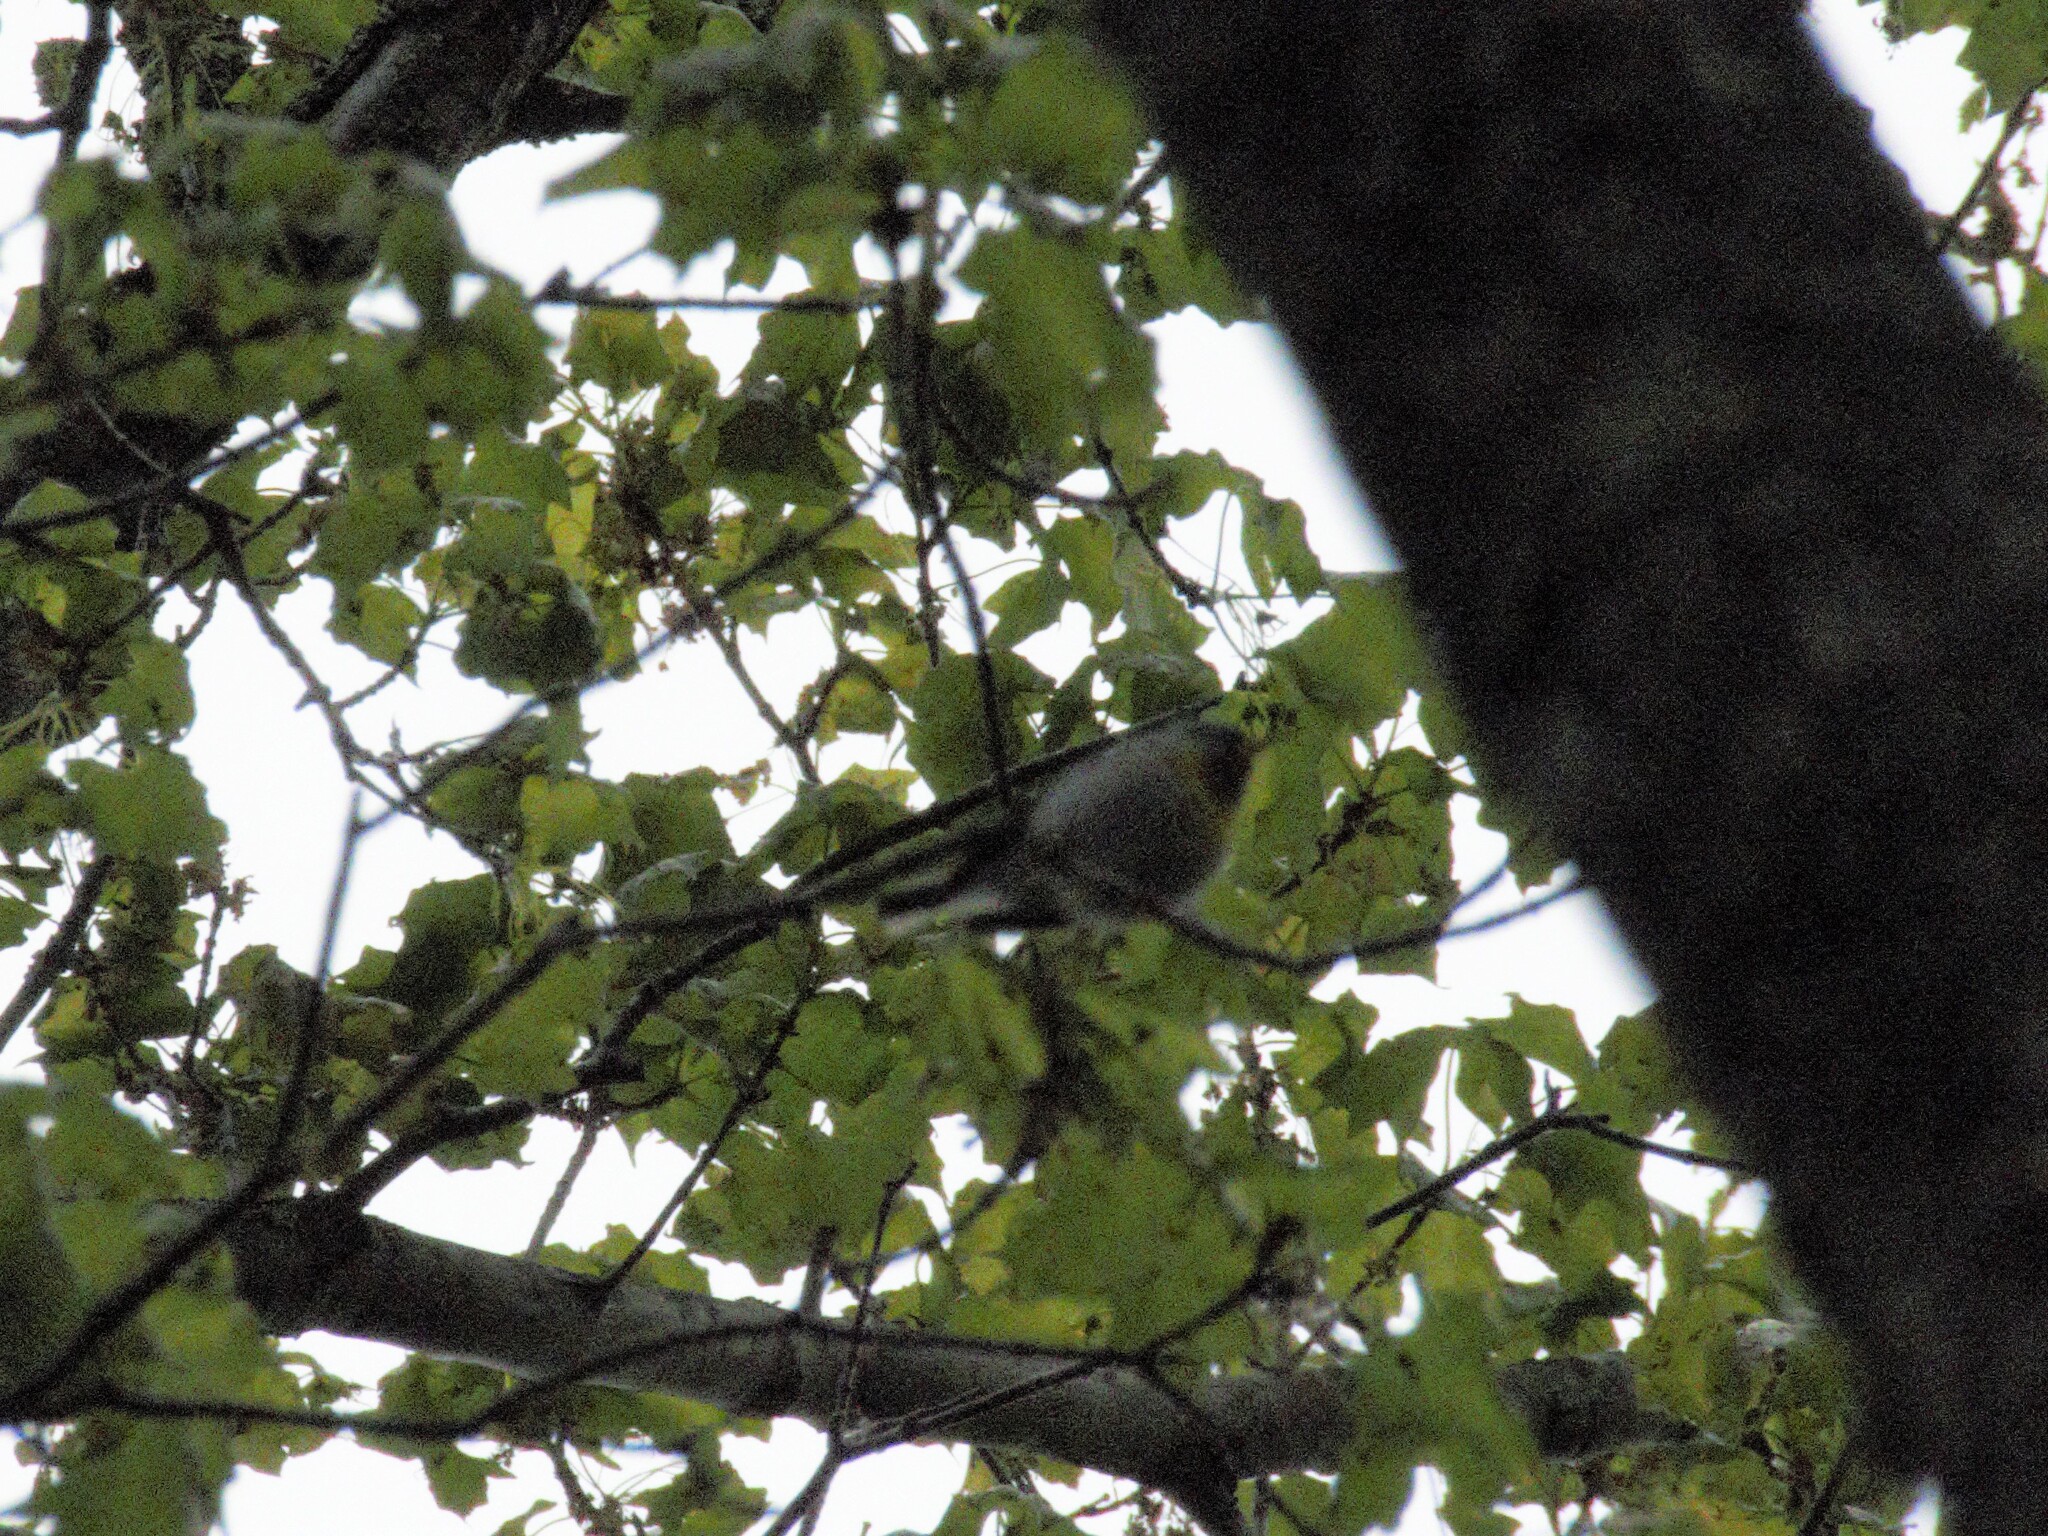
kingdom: Animalia
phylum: Chordata
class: Aves
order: Passeriformes
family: Parulidae
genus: Setophaga
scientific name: Setophaga americana
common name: Northern parula
